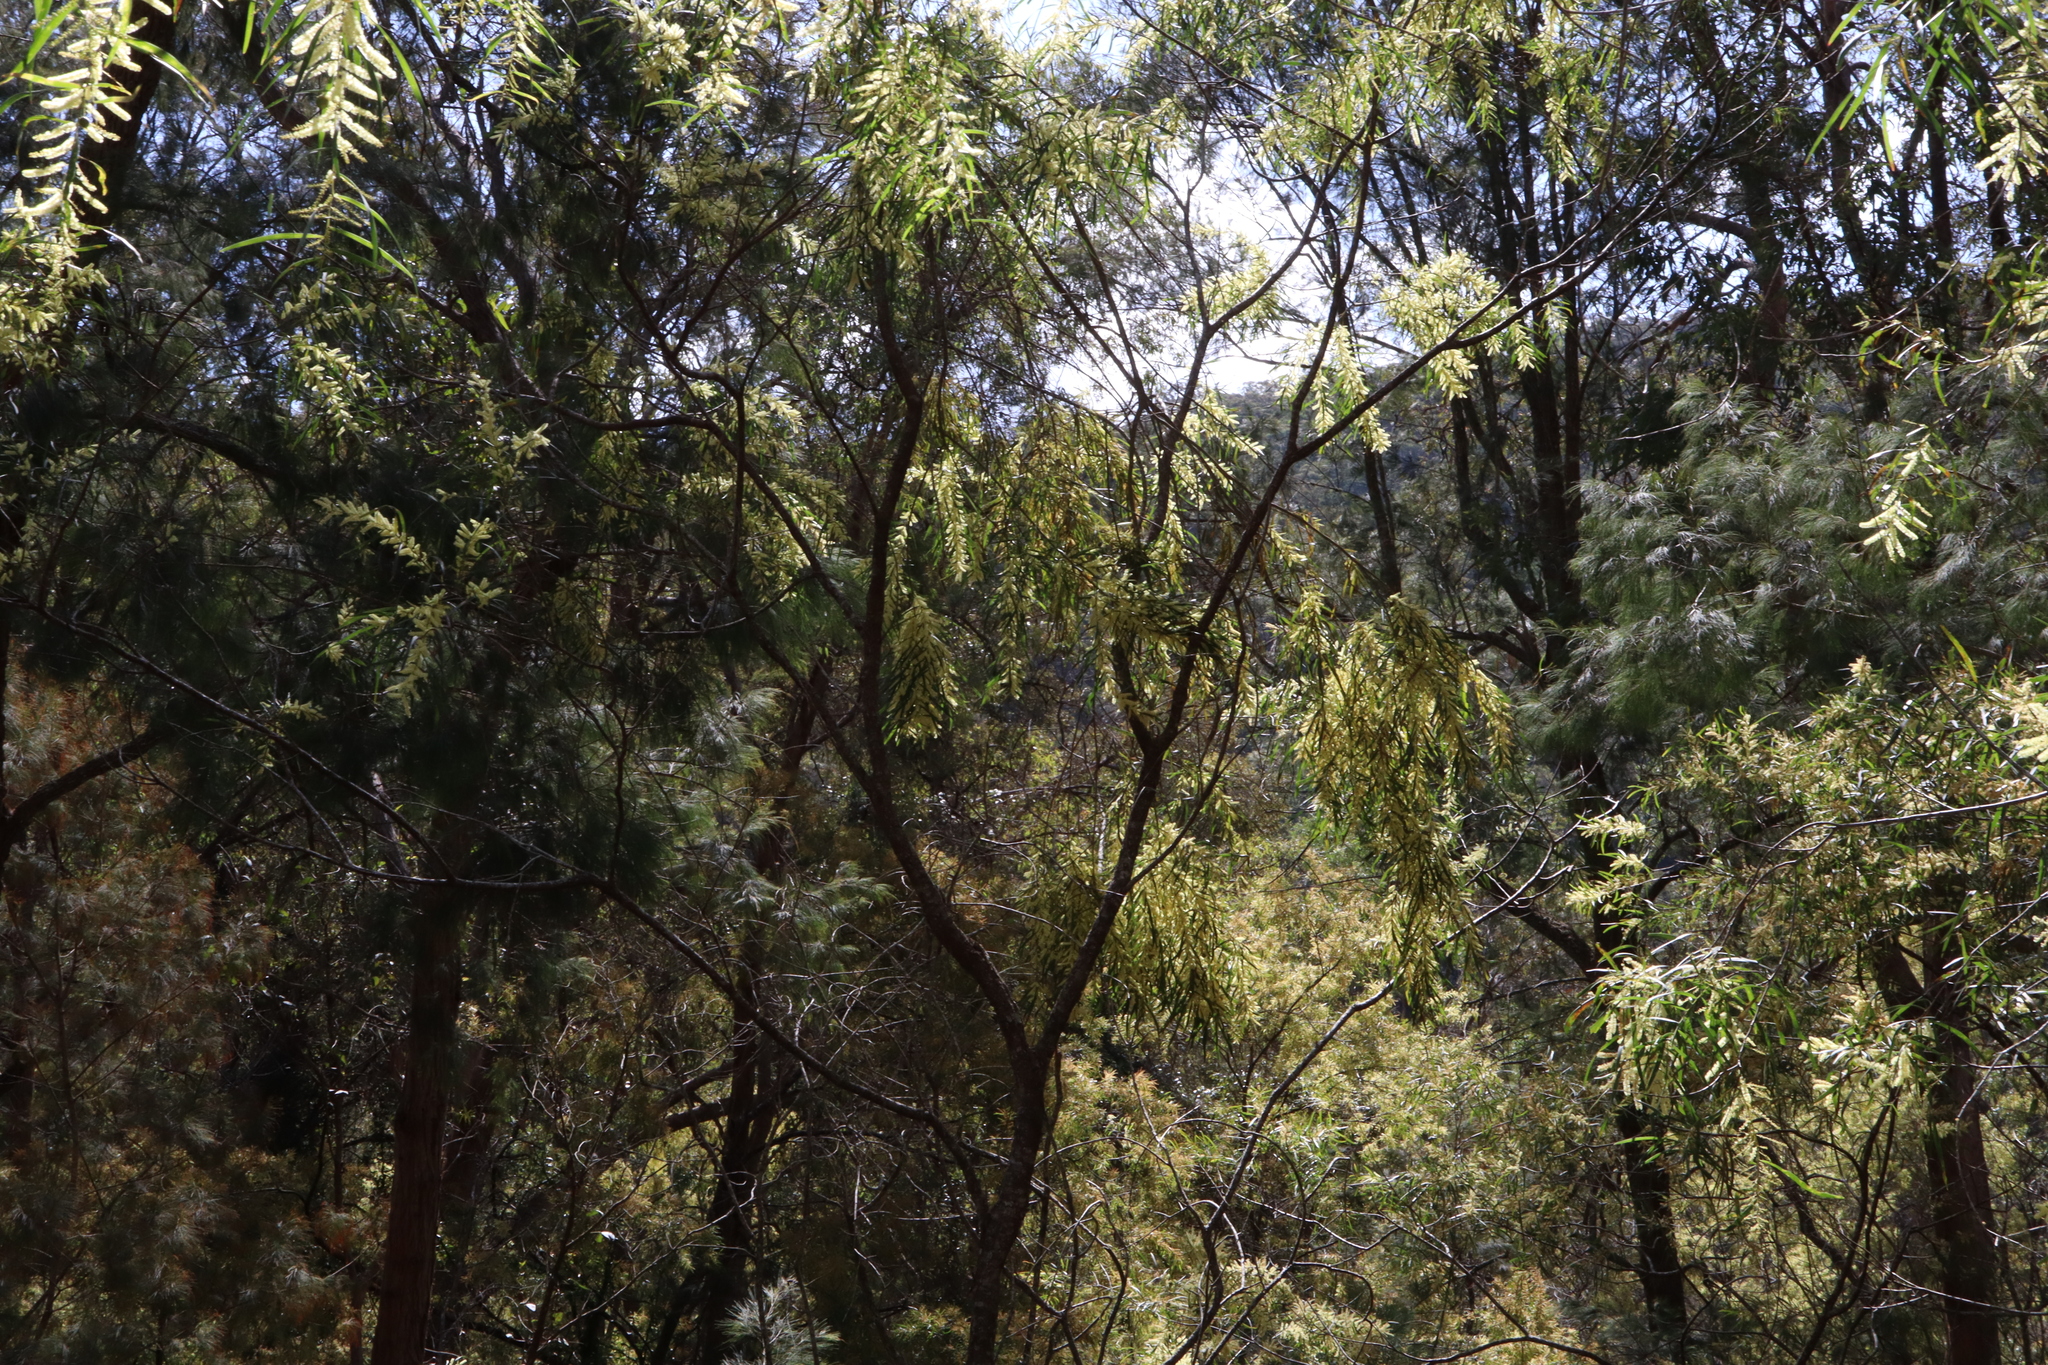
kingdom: Plantae
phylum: Tracheophyta
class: Magnoliopsida
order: Fabales
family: Fabaceae
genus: Acacia
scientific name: Acacia floribunda
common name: Gossamer wattle
